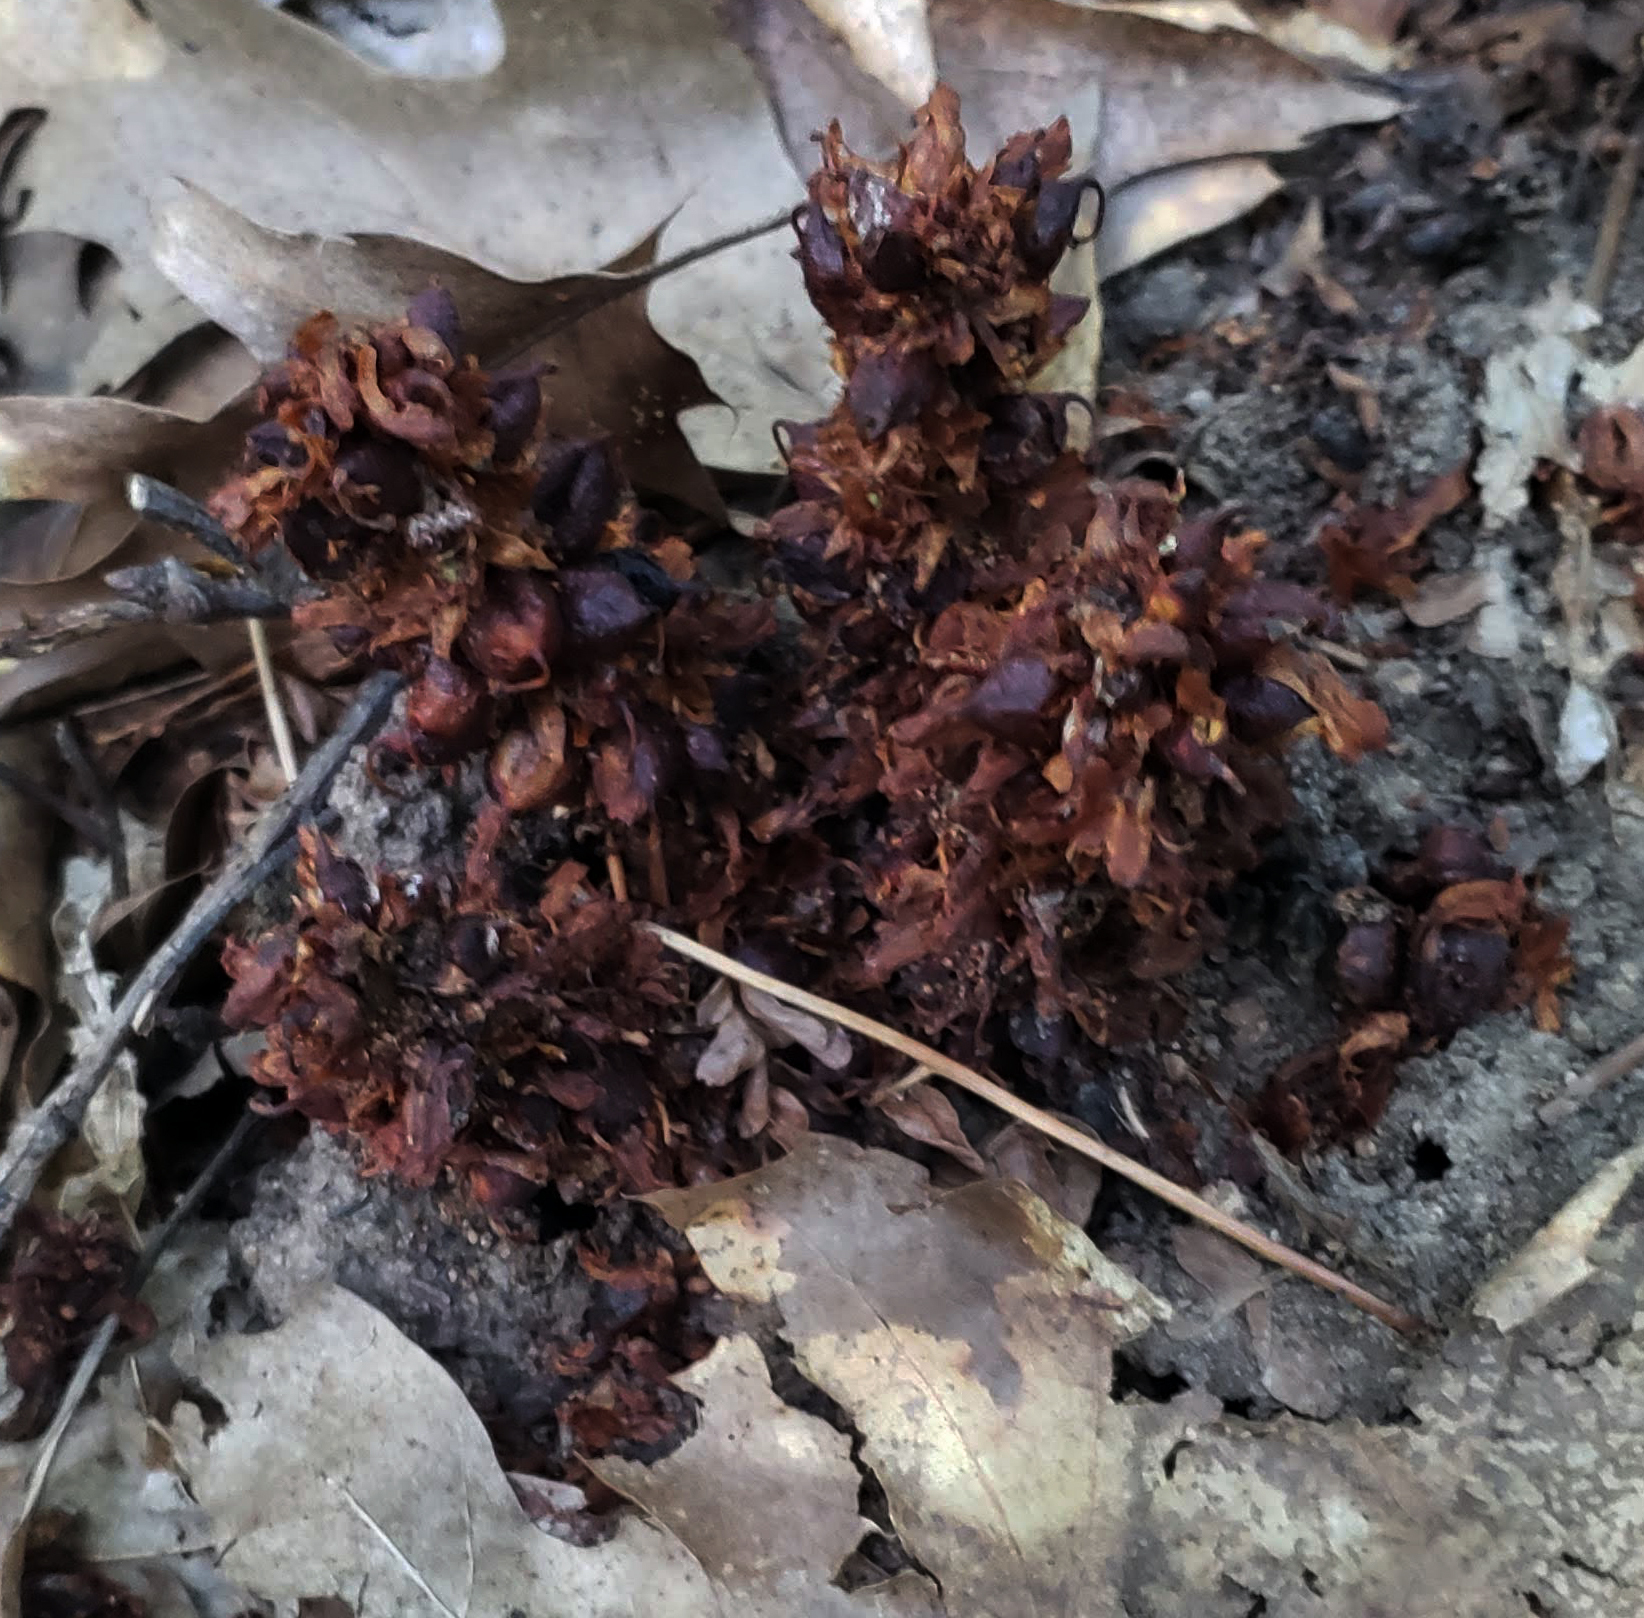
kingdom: Plantae
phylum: Tracheophyta
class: Magnoliopsida
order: Lamiales
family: Orobanchaceae
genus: Conopholis
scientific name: Conopholis americana
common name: American cancer-root
